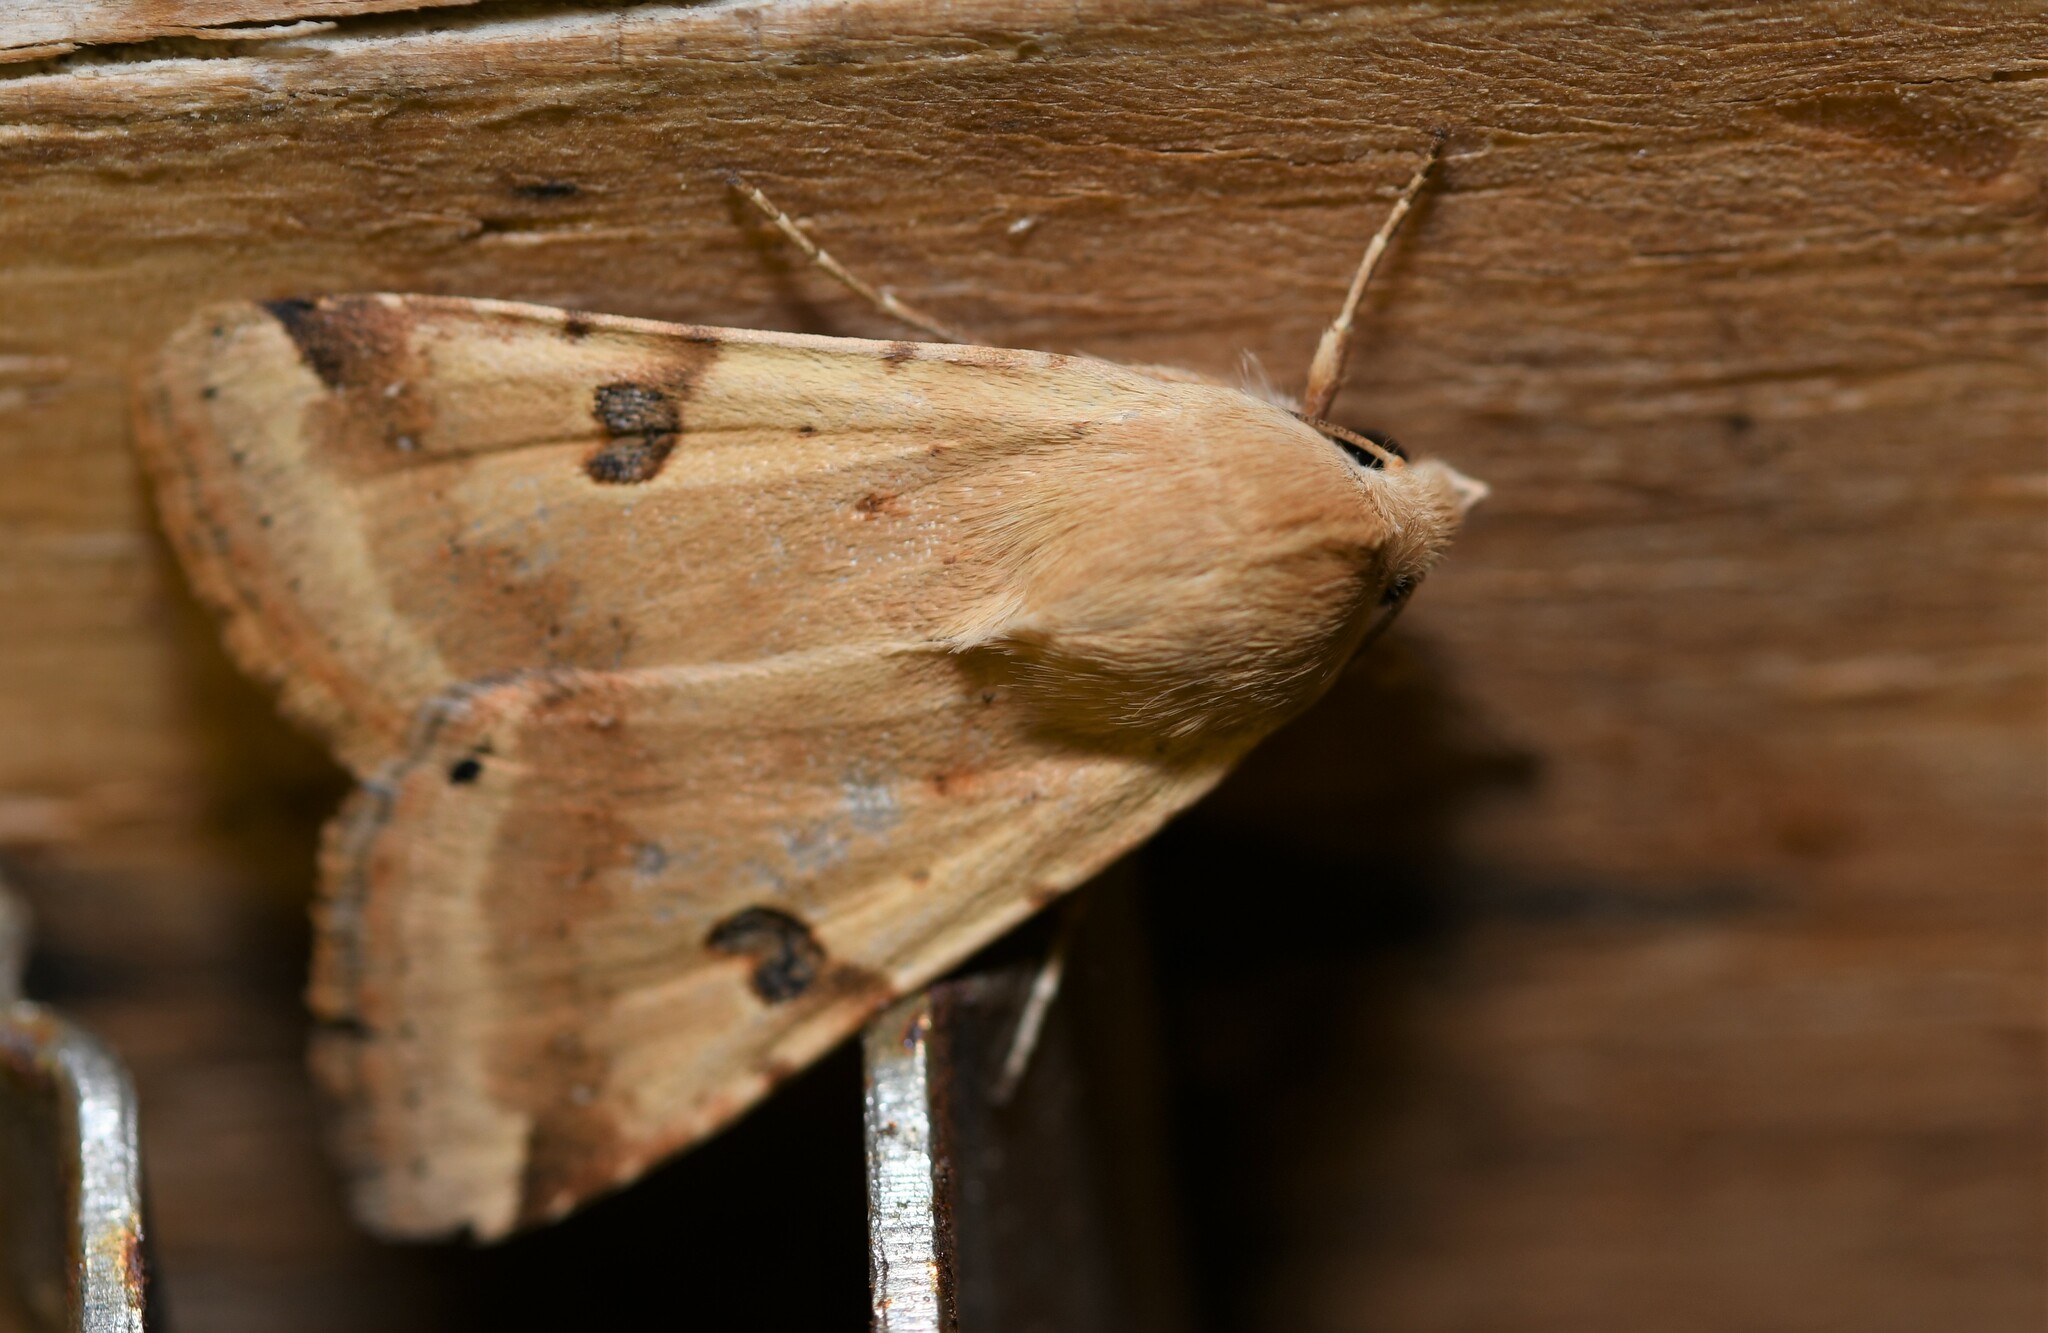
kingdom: Animalia
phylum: Arthropoda
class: Insecta
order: Lepidoptera
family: Noctuidae
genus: Heliothis
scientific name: Heliothis peltigera
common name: Bordered straw
